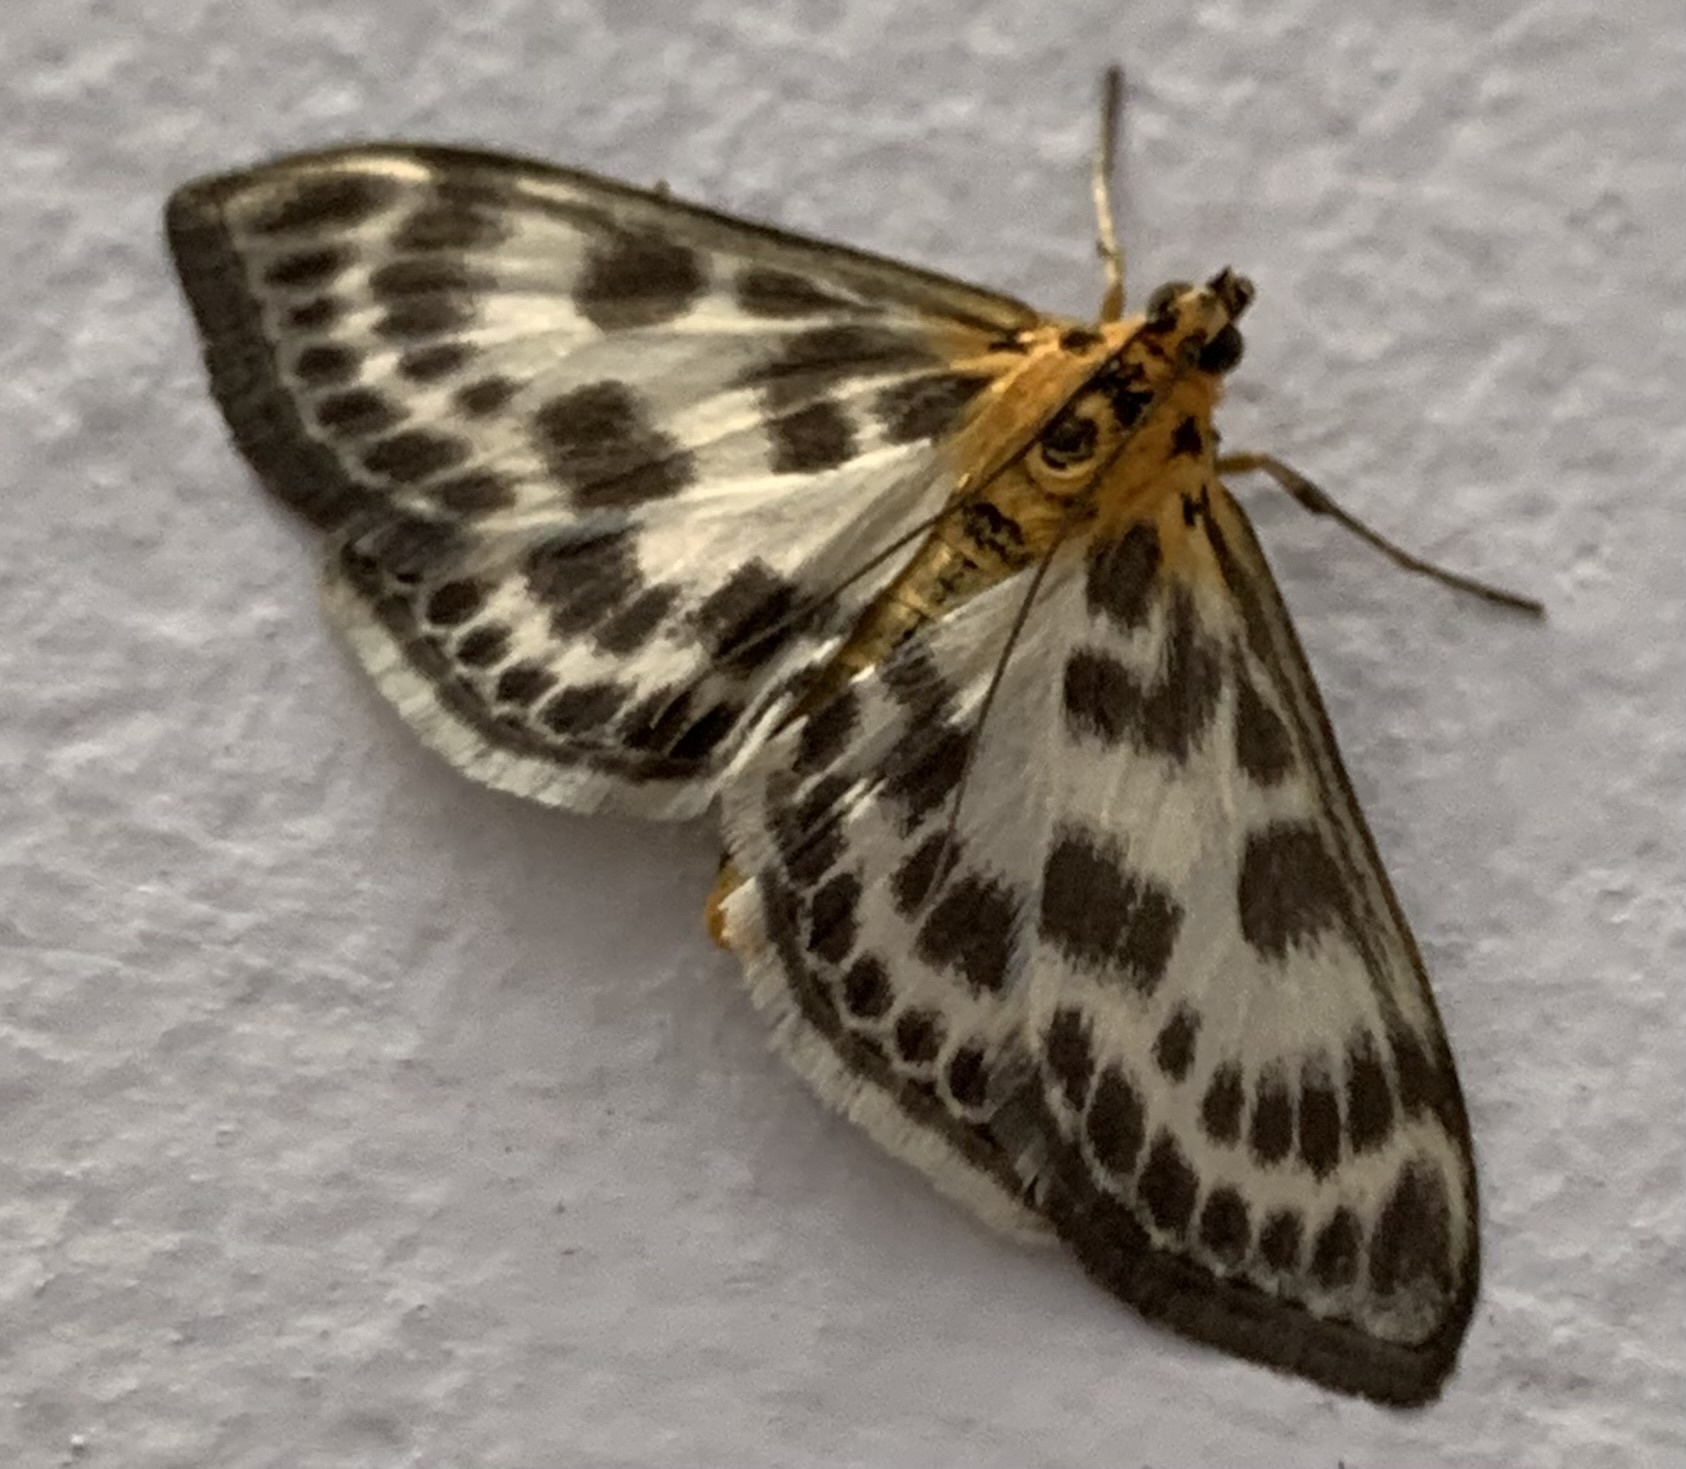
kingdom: Animalia
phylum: Arthropoda
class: Insecta
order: Lepidoptera
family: Crambidae
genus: Anania
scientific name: Anania hortulata
